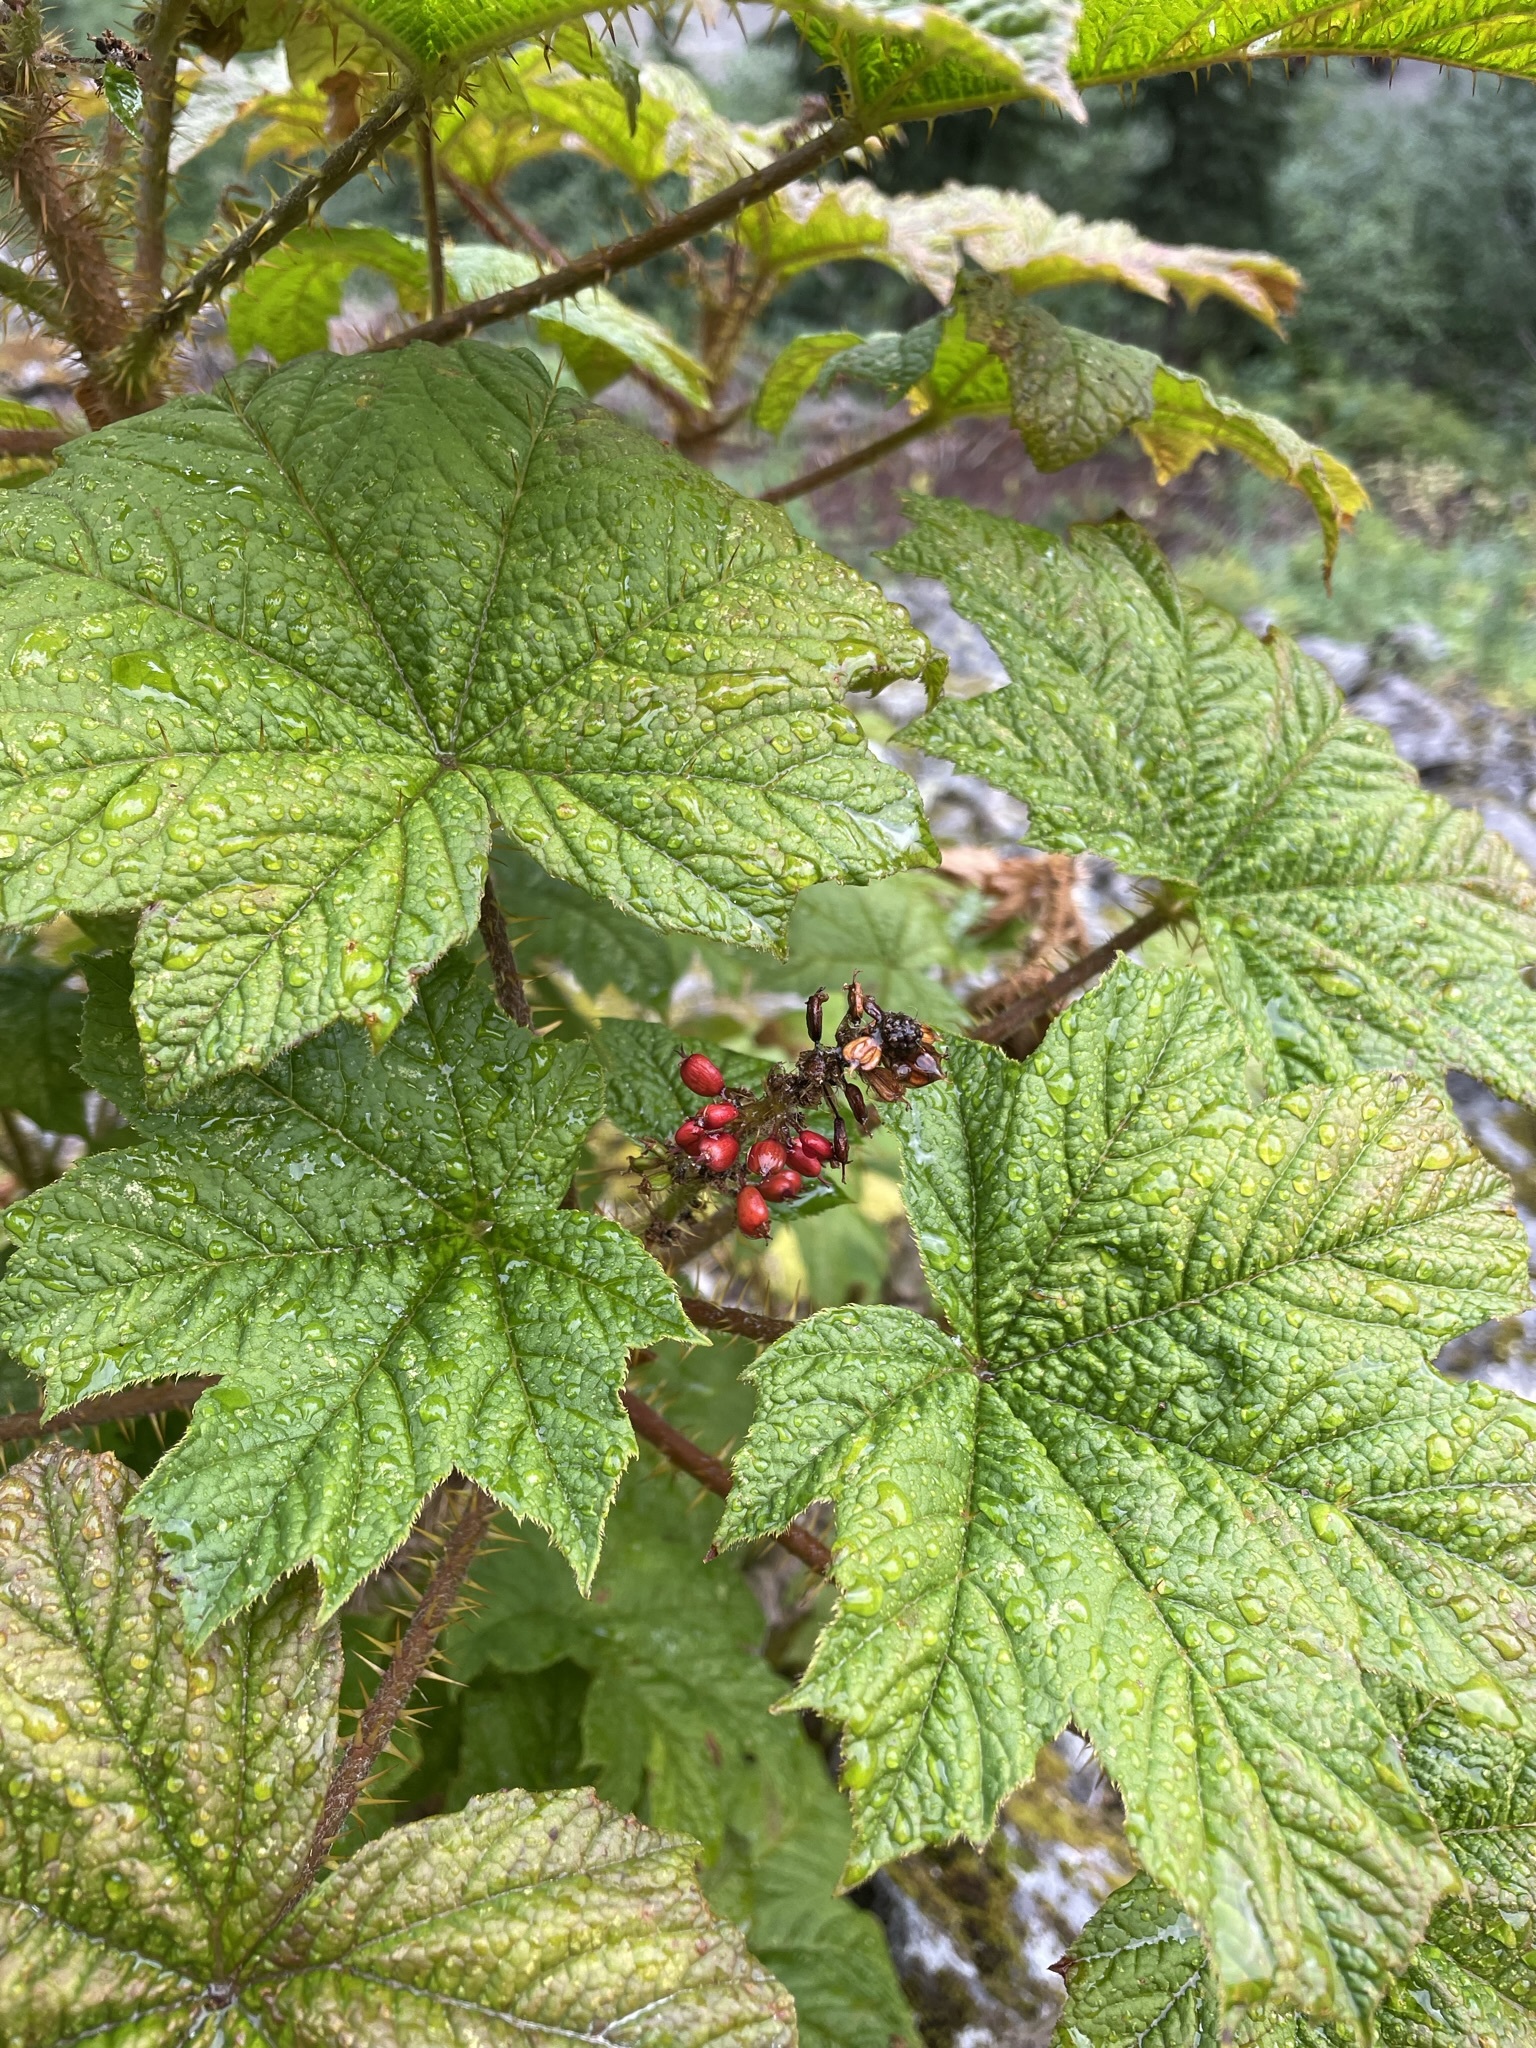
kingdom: Plantae
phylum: Tracheophyta
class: Magnoliopsida
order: Apiales
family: Araliaceae
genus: Oplopanax
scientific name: Oplopanax horridus
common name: Devil's walking-stick
